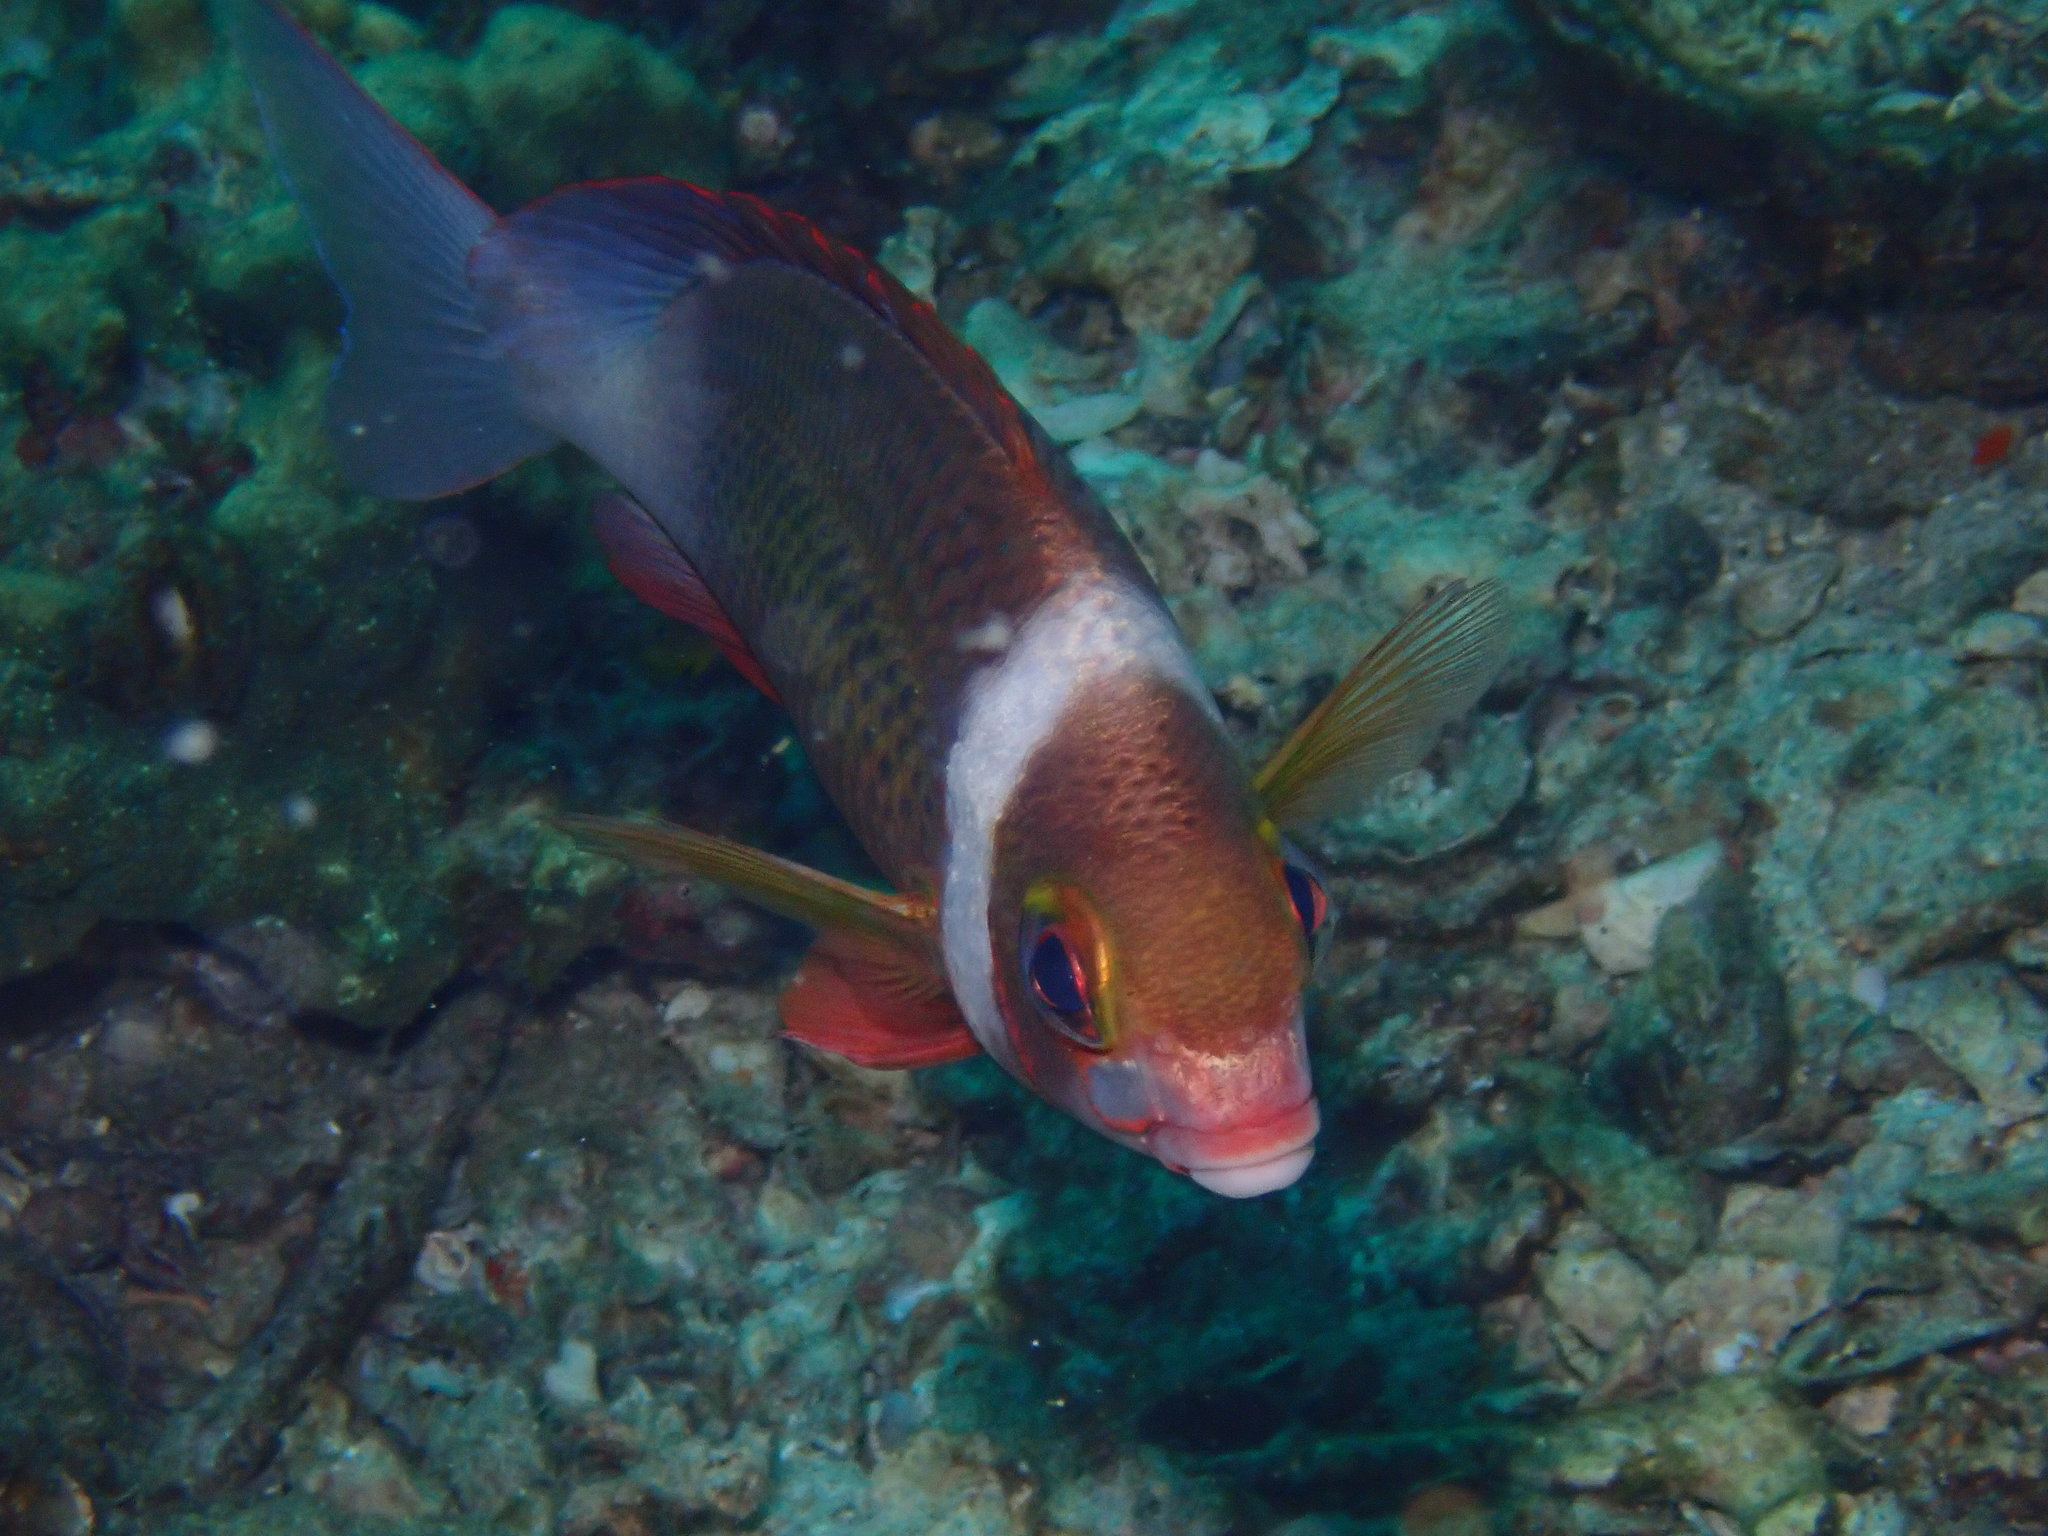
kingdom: Animalia
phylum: Chordata
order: Perciformes
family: Nemipteridae
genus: Scolopsis
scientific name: Scolopsis vosmeri
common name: Whitecheek monocle bream
